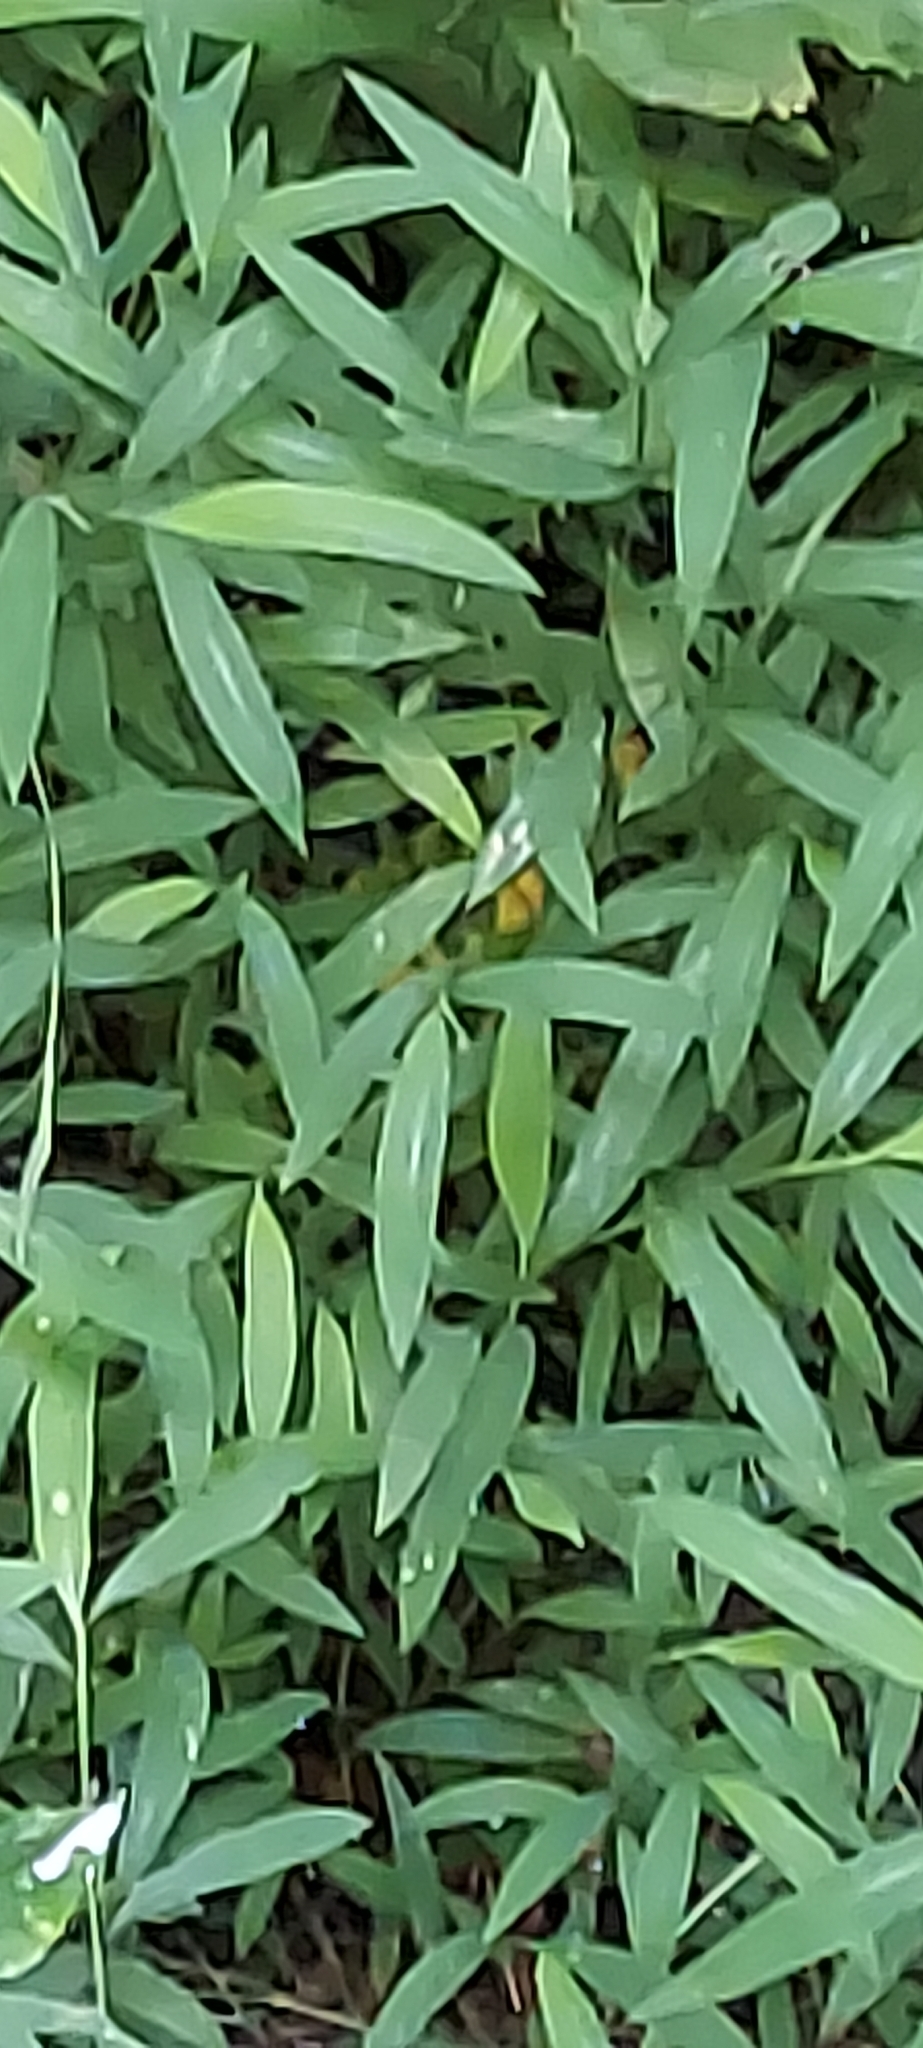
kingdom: Plantae
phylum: Tracheophyta
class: Liliopsida
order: Poales
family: Poaceae
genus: Microstegium
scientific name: Microstegium vimineum
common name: Japanese stiltgrass
